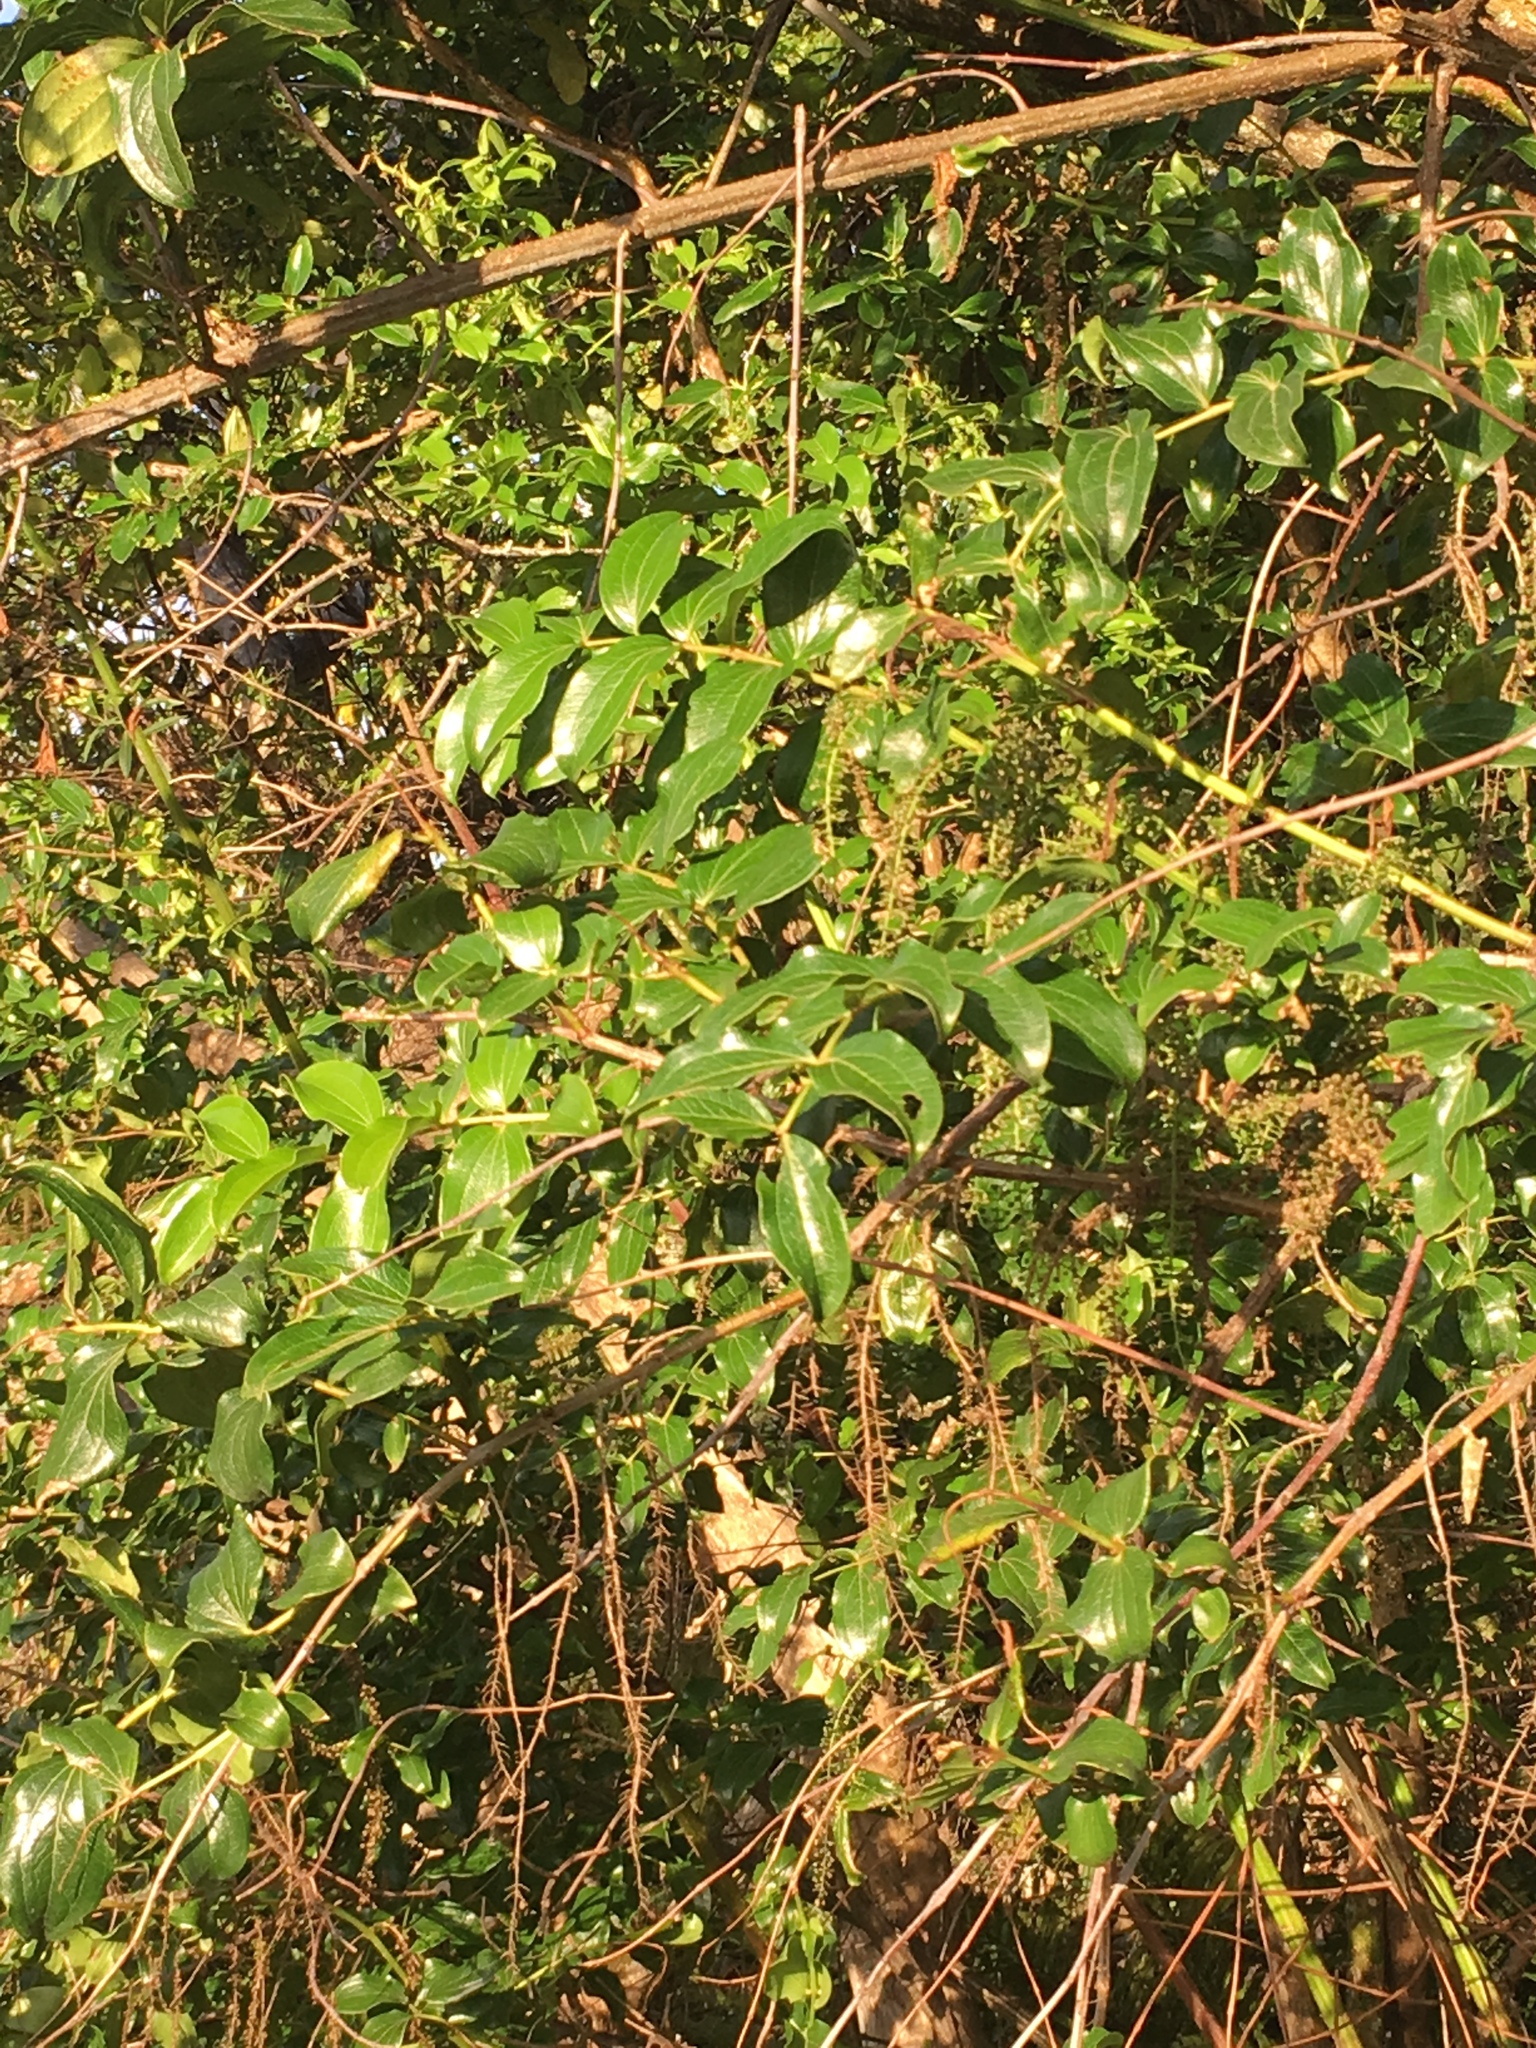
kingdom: Plantae
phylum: Tracheophyta
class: Magnoliopsida
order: Cucurbitales
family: Coriariaceae
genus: Coriaria
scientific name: Coriaria arborea
